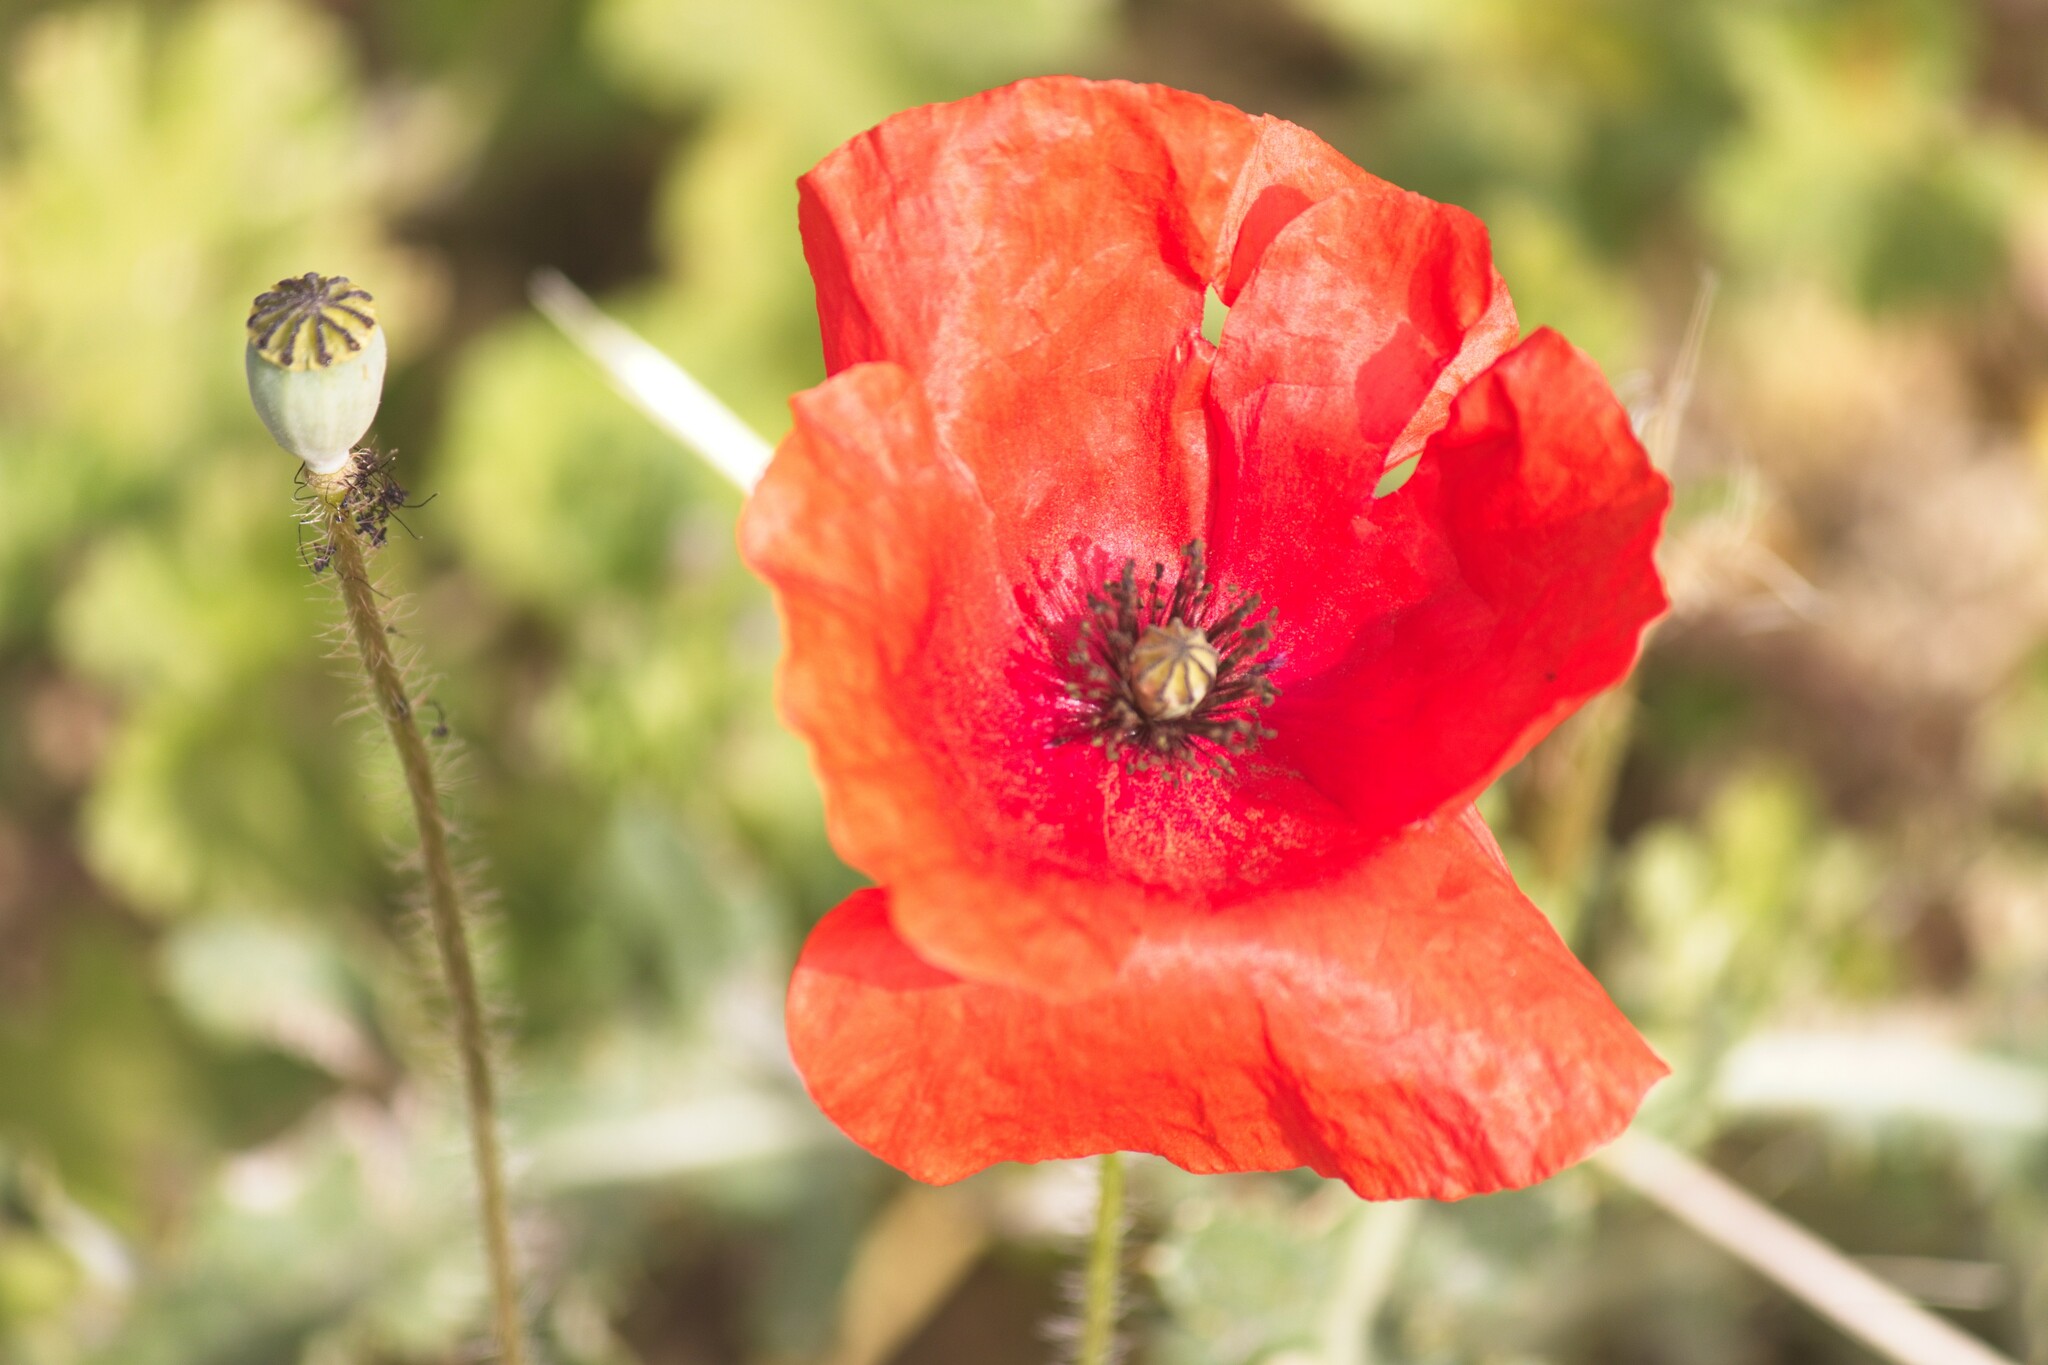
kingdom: Plantae
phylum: Tracheophyta
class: Magnoliopsida
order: Ranunculales
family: Papaveraceae
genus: Papaver
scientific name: Papaver rhoeas
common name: Corn poppy
